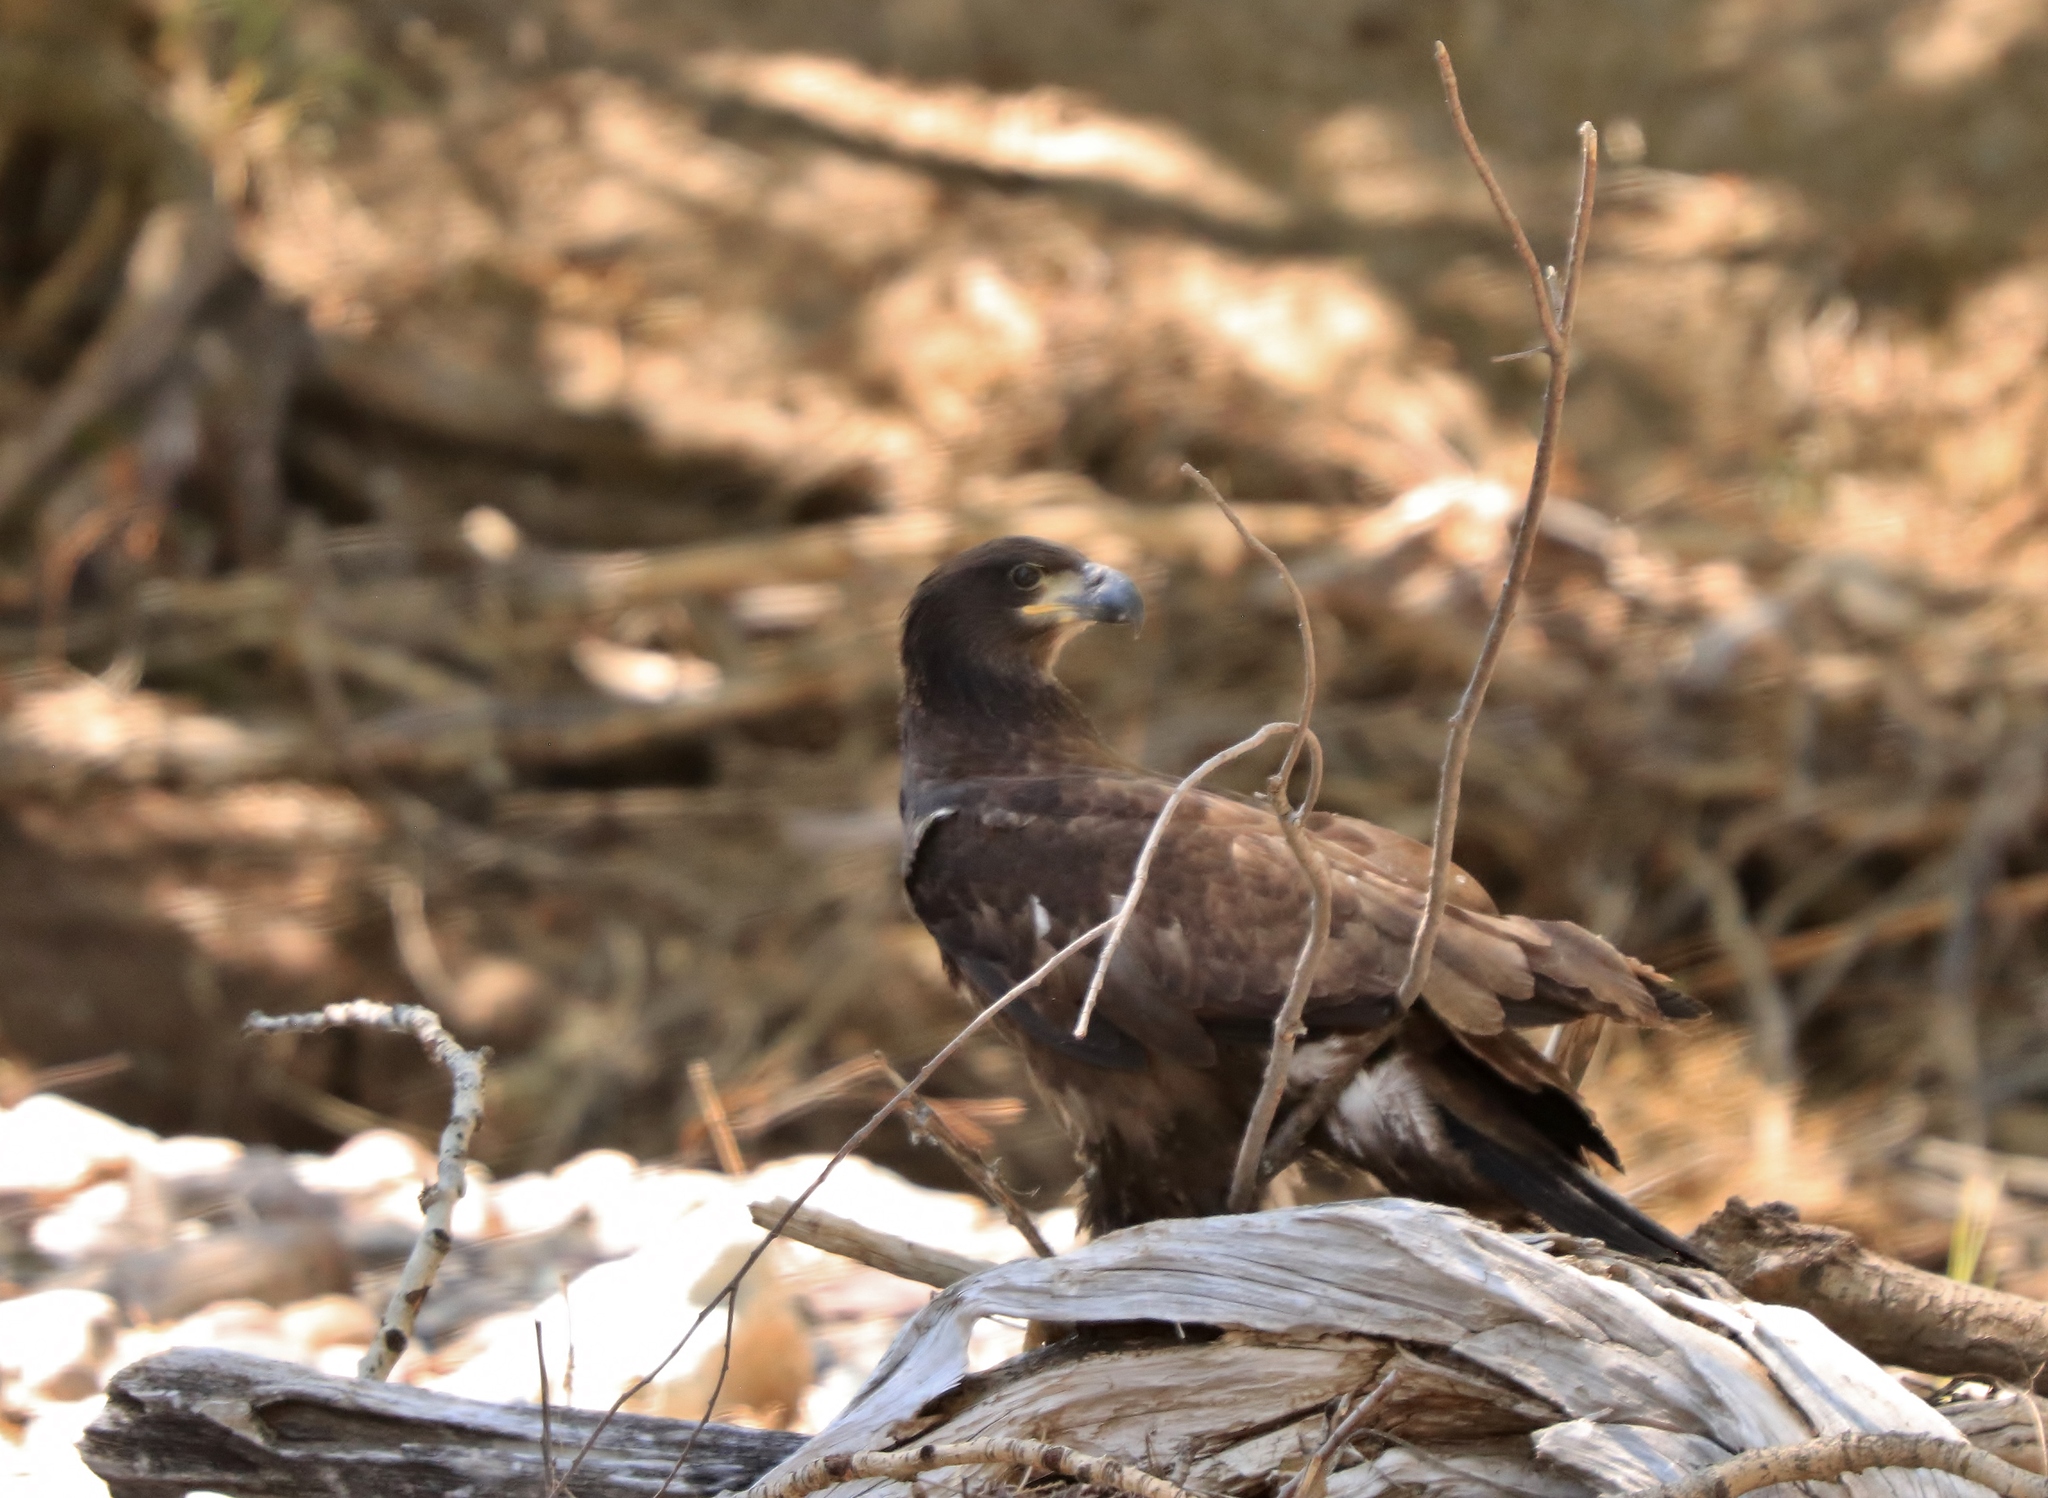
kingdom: Animalia
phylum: Chordata
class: Aves
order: Accipitriformes
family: Accipitridae
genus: Haliaeetus
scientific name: Haliaeetus leucocephalus
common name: Bald eagle
